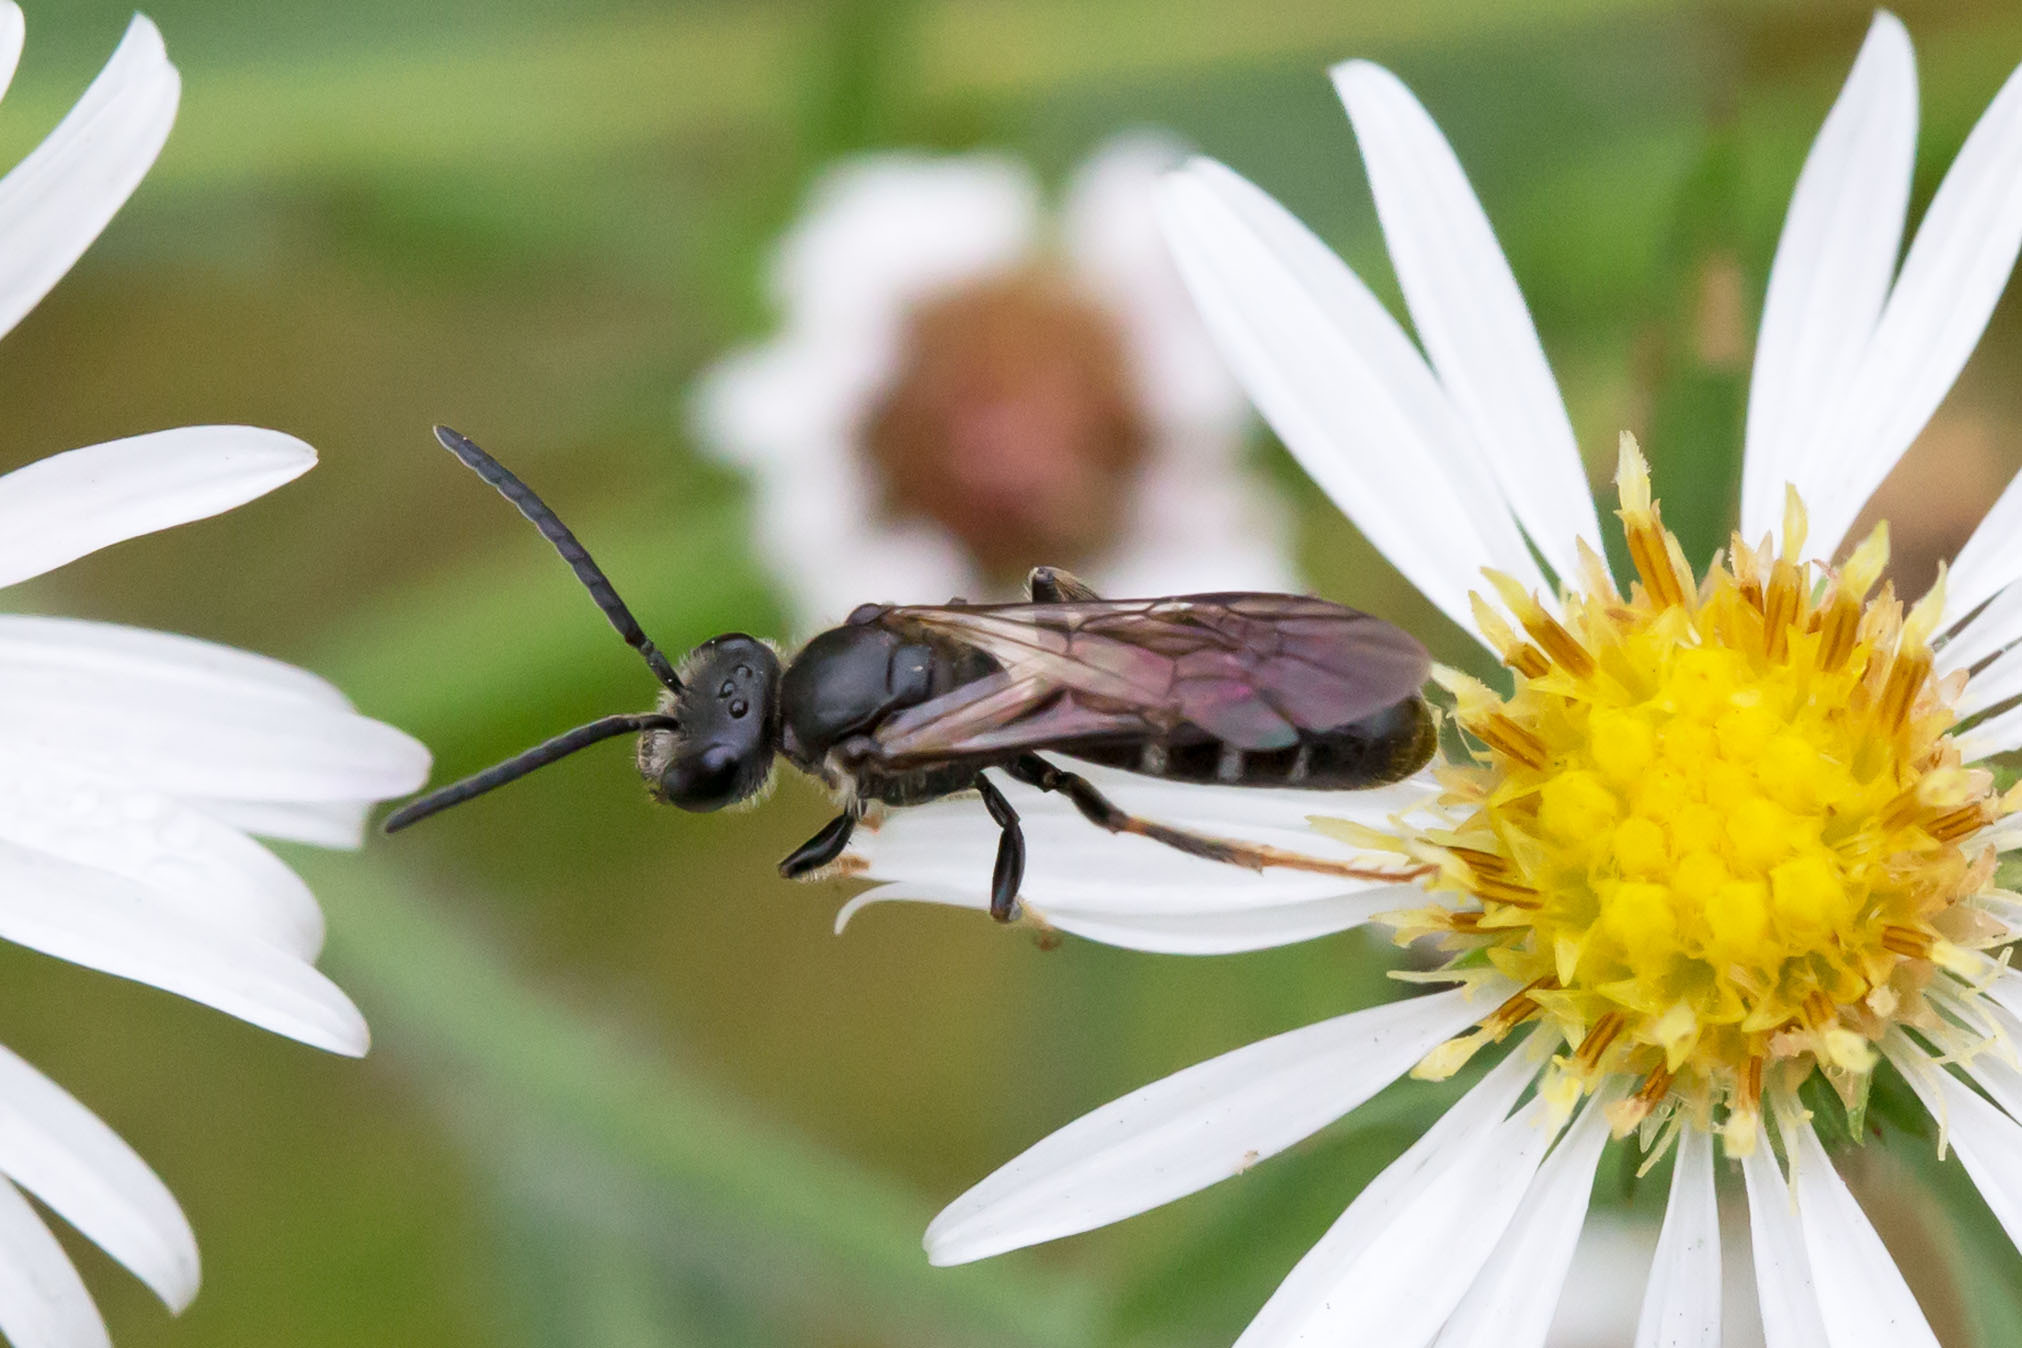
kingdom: Animalia
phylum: Arthropoda
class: Insecta
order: Hymenoptera
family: Halictidae
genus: Lasioglossum
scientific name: Lasioglossum fuscipenne
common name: Brown-winged sweat bee
